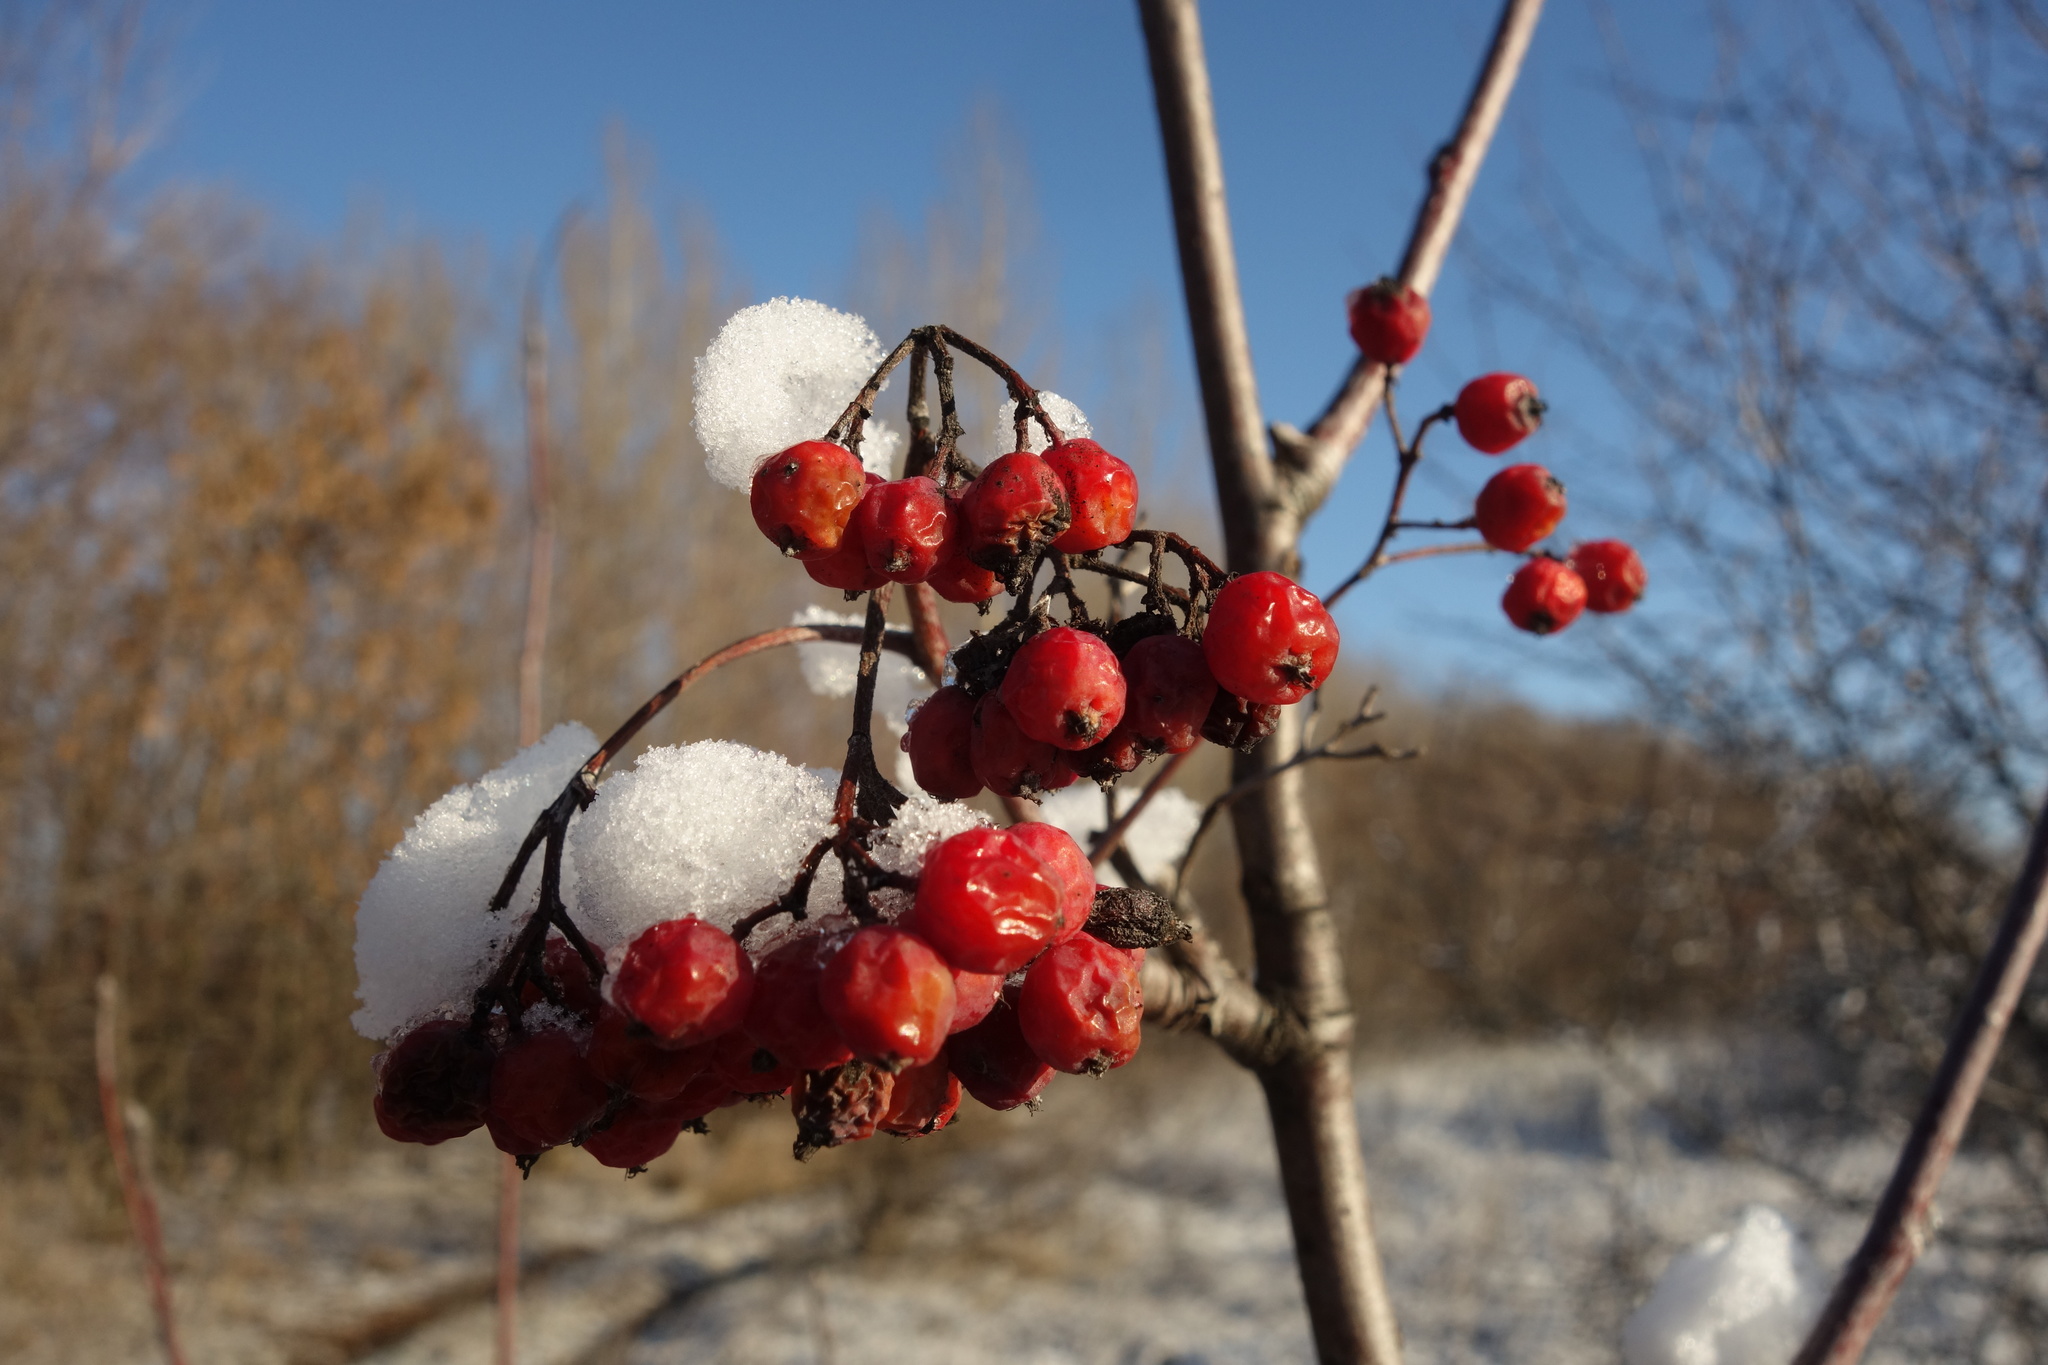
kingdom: Plantae
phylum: Tracheophyta
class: Magnoliopsida
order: Rosales
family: Rosaceae
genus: Sorbus
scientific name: Sorbus aucuparia
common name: Rowan
